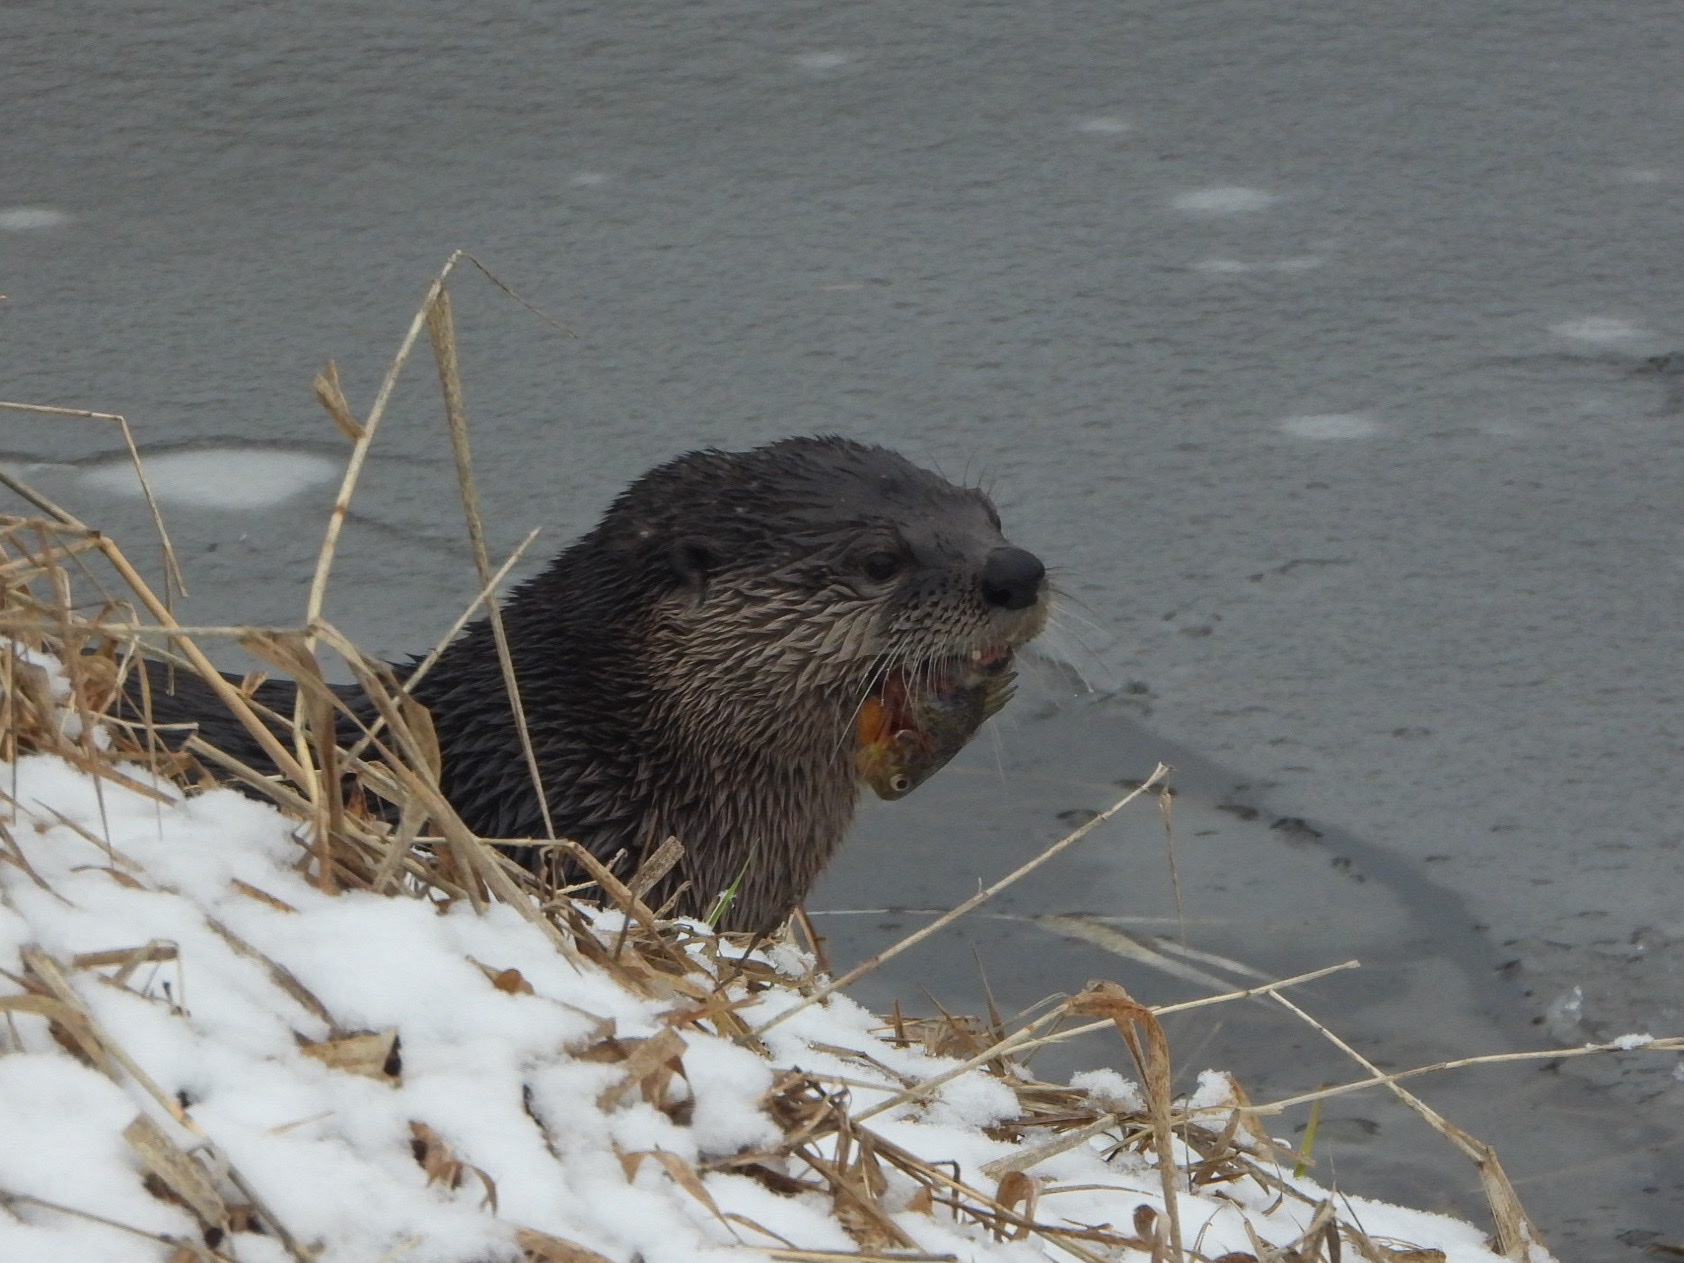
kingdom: Animalia
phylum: Chordata
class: Mammalia
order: Carnivora
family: Mustelidae
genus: Lontra
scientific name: Lontra canadensis
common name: North american river otter
